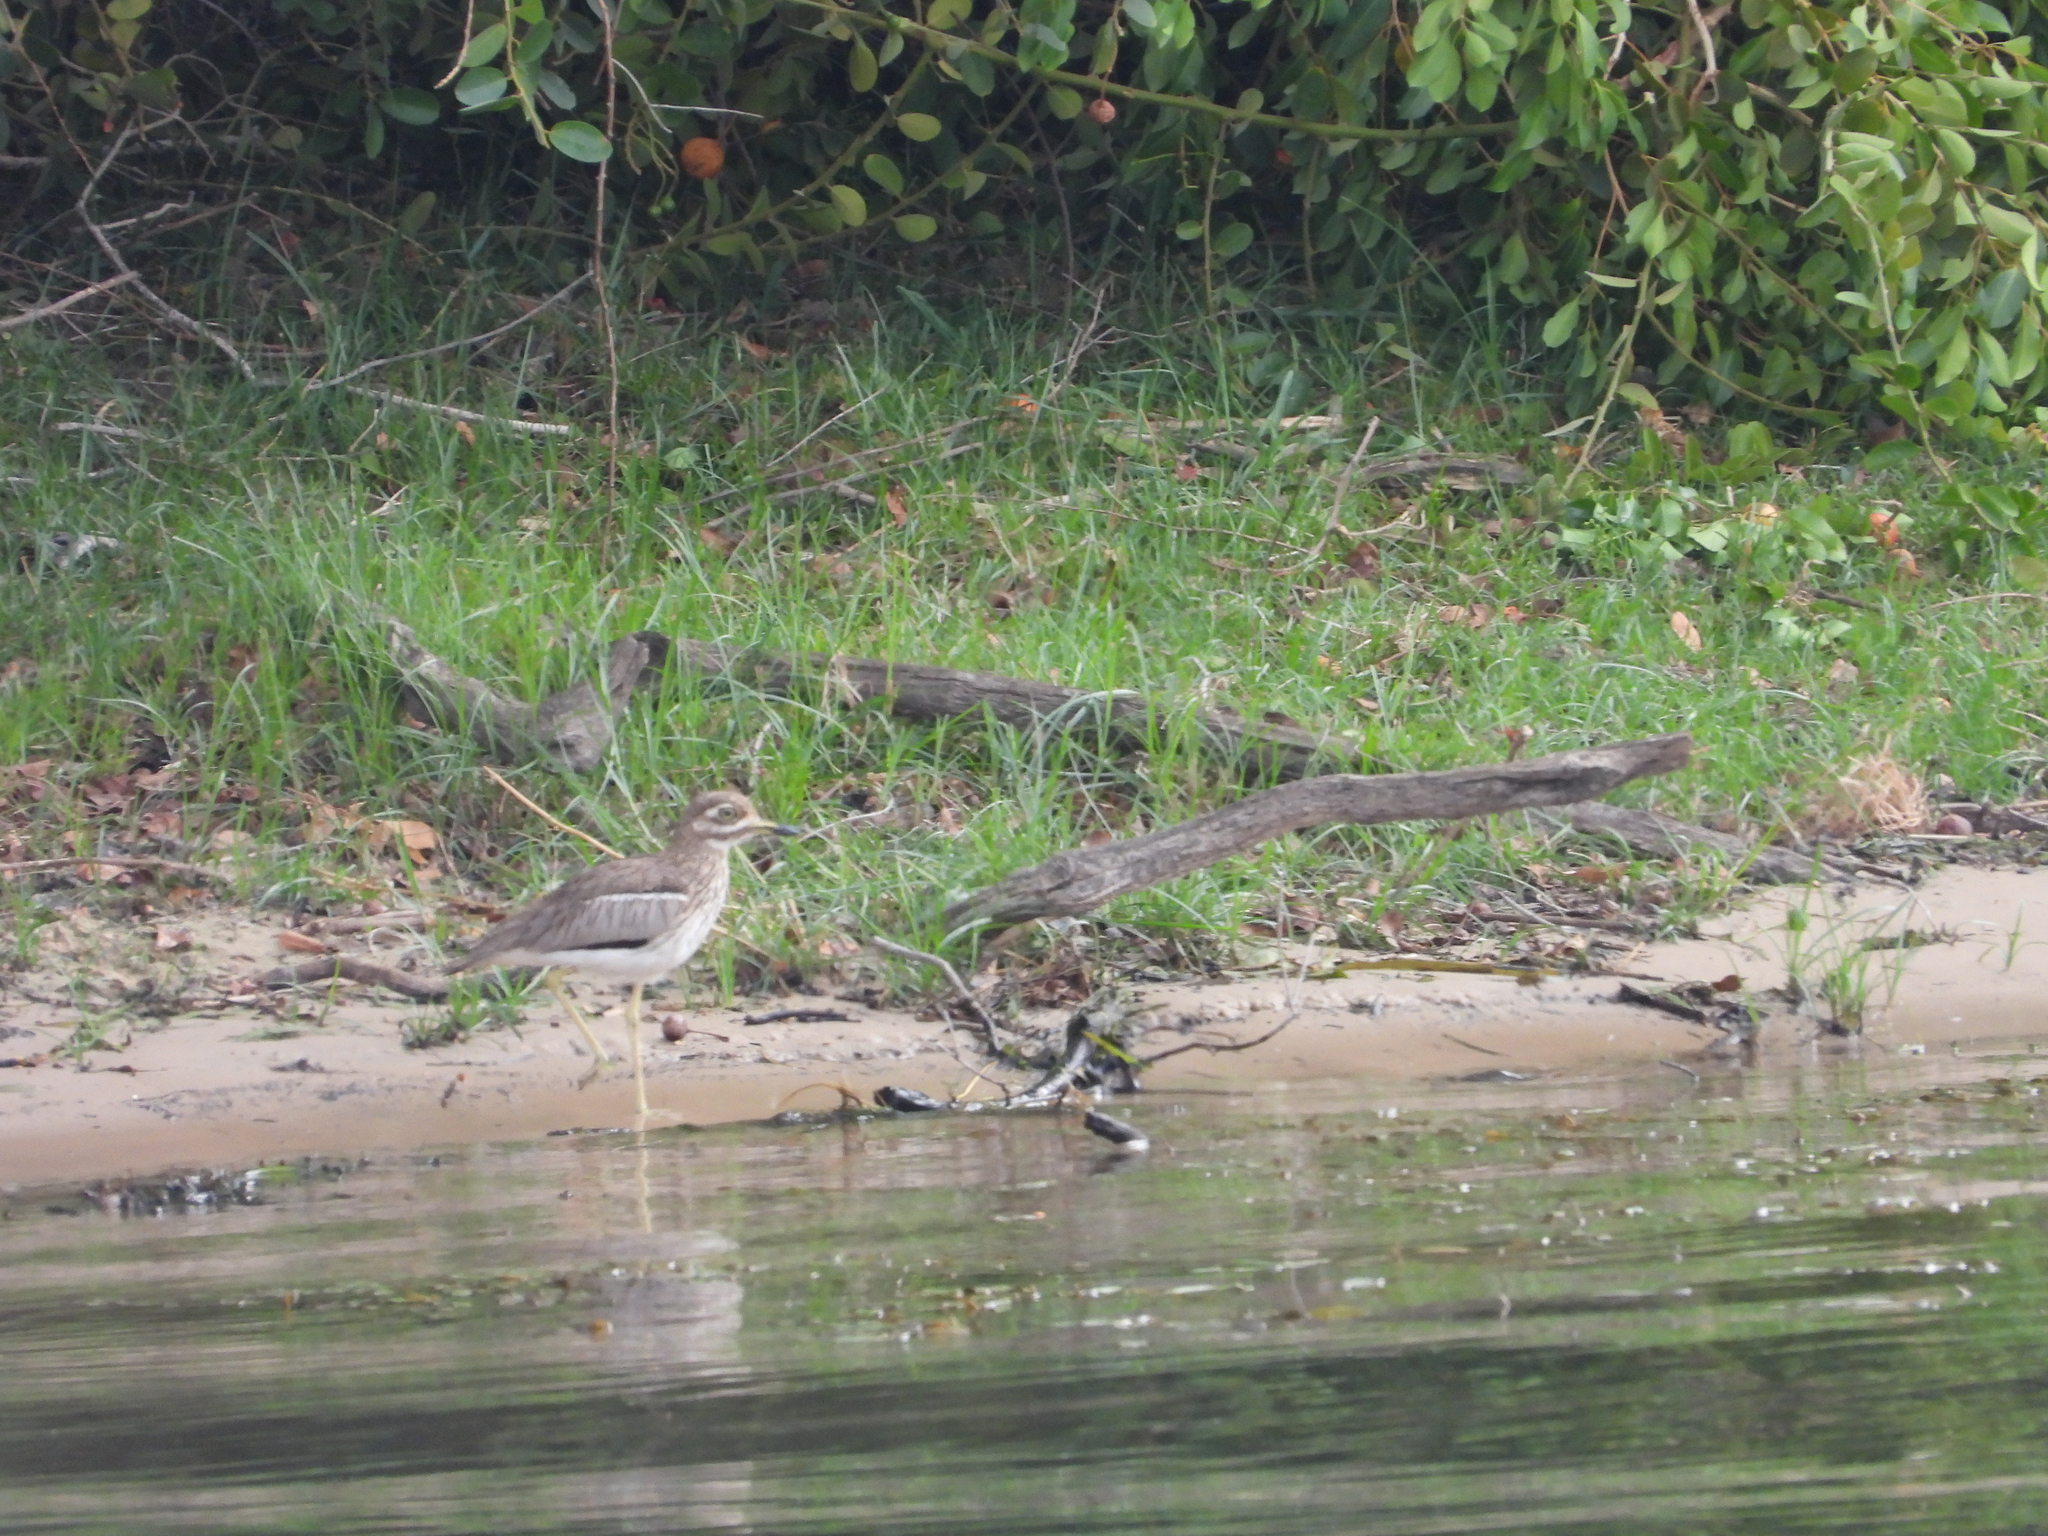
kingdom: Animalia
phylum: Chordata
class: Aves
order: Charadriiformes
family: Burhinidae
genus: Burhinus
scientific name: Burhinus vermiculatus
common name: Water thick-knee
